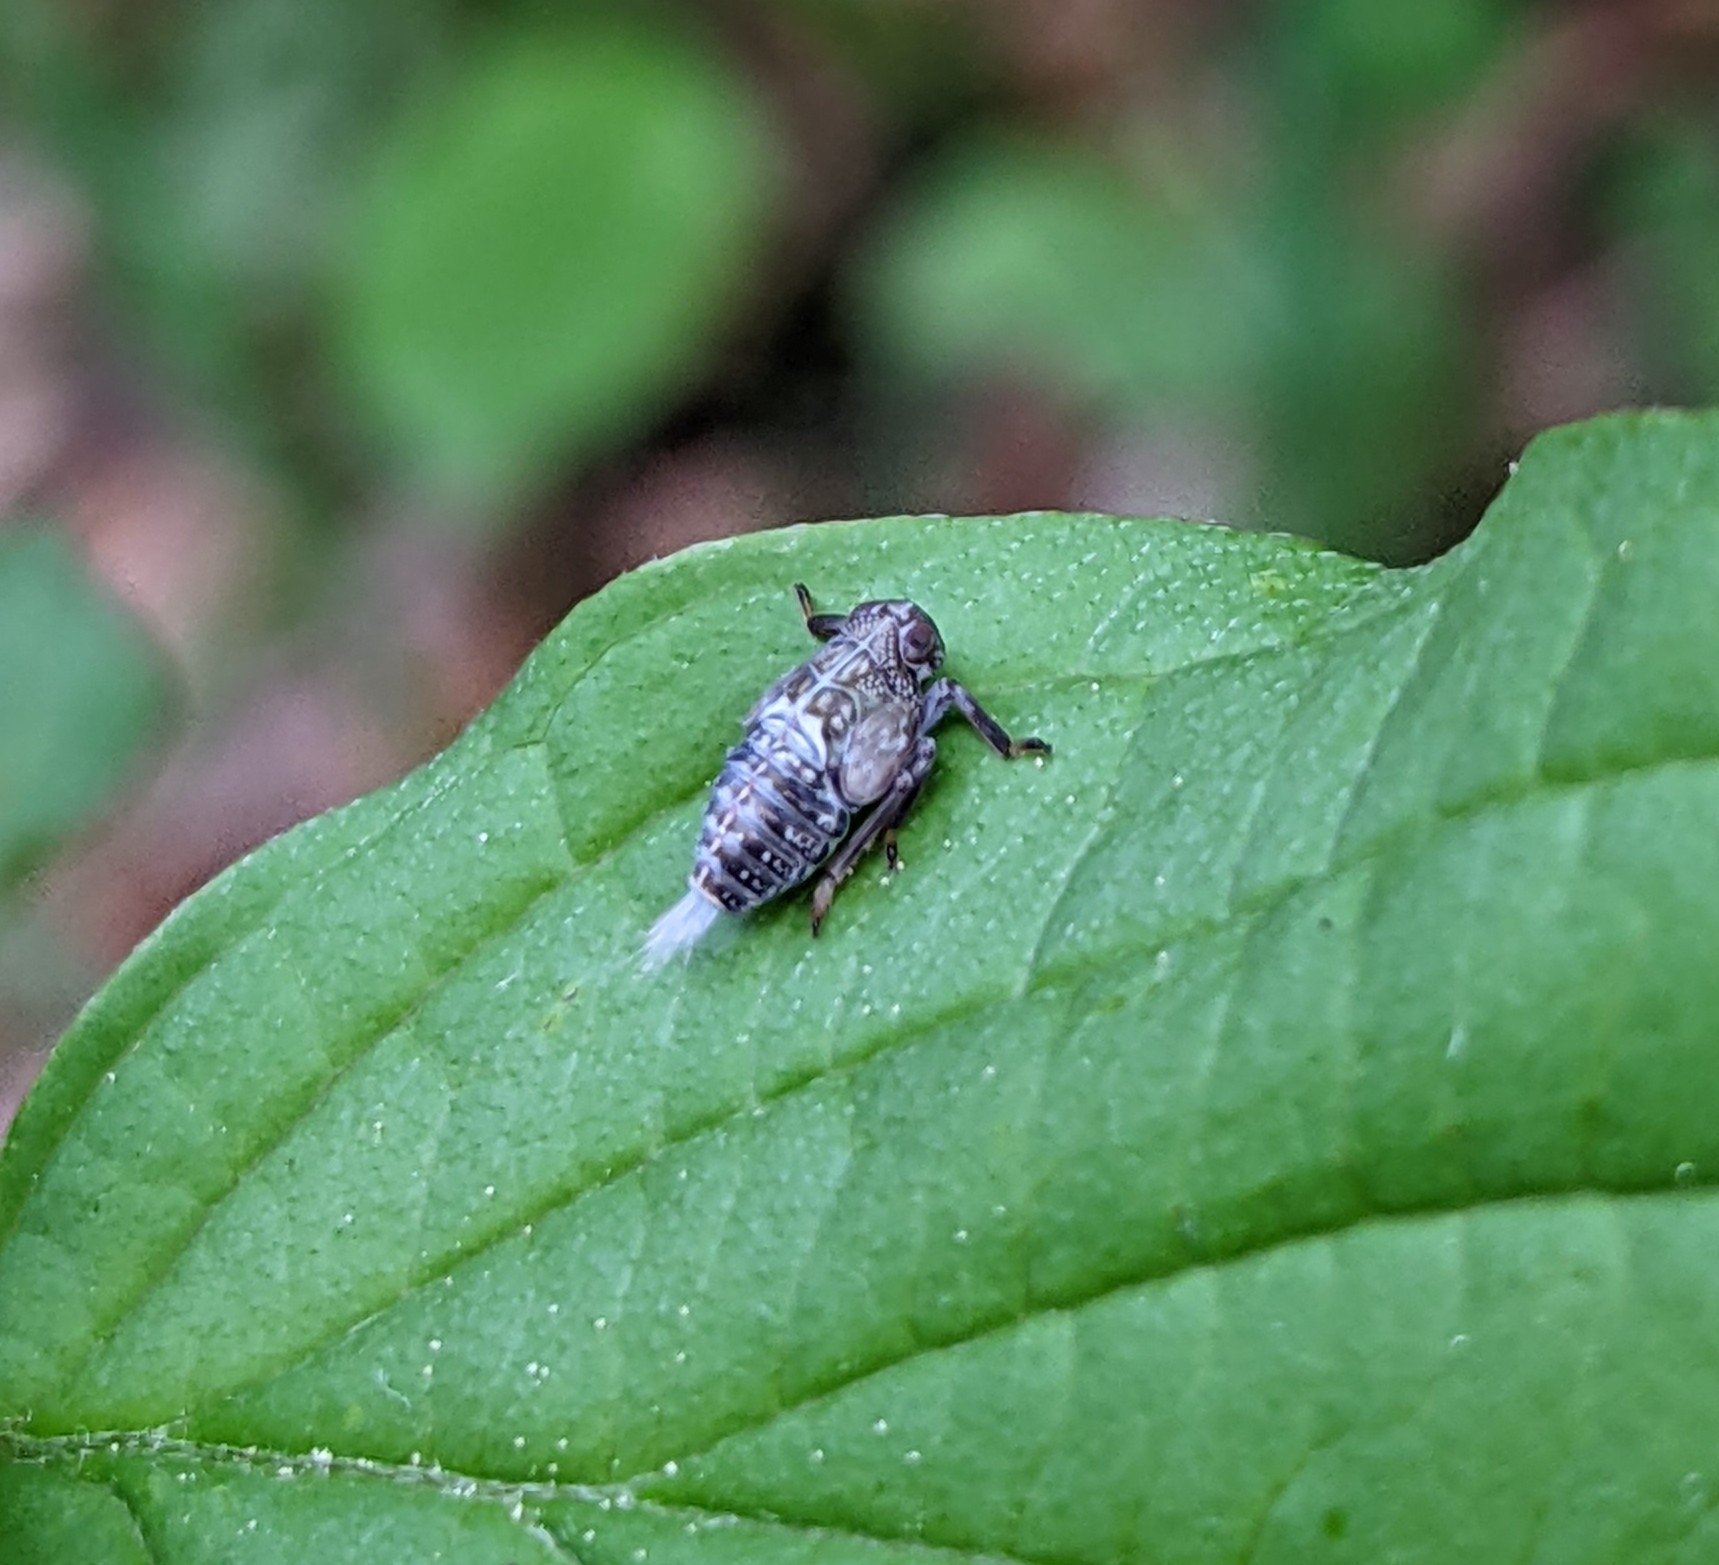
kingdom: Animalia
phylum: Arthropoda
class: Insecta
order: Hemiptera
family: Issidae
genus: Issus
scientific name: Issus coleoptratus
